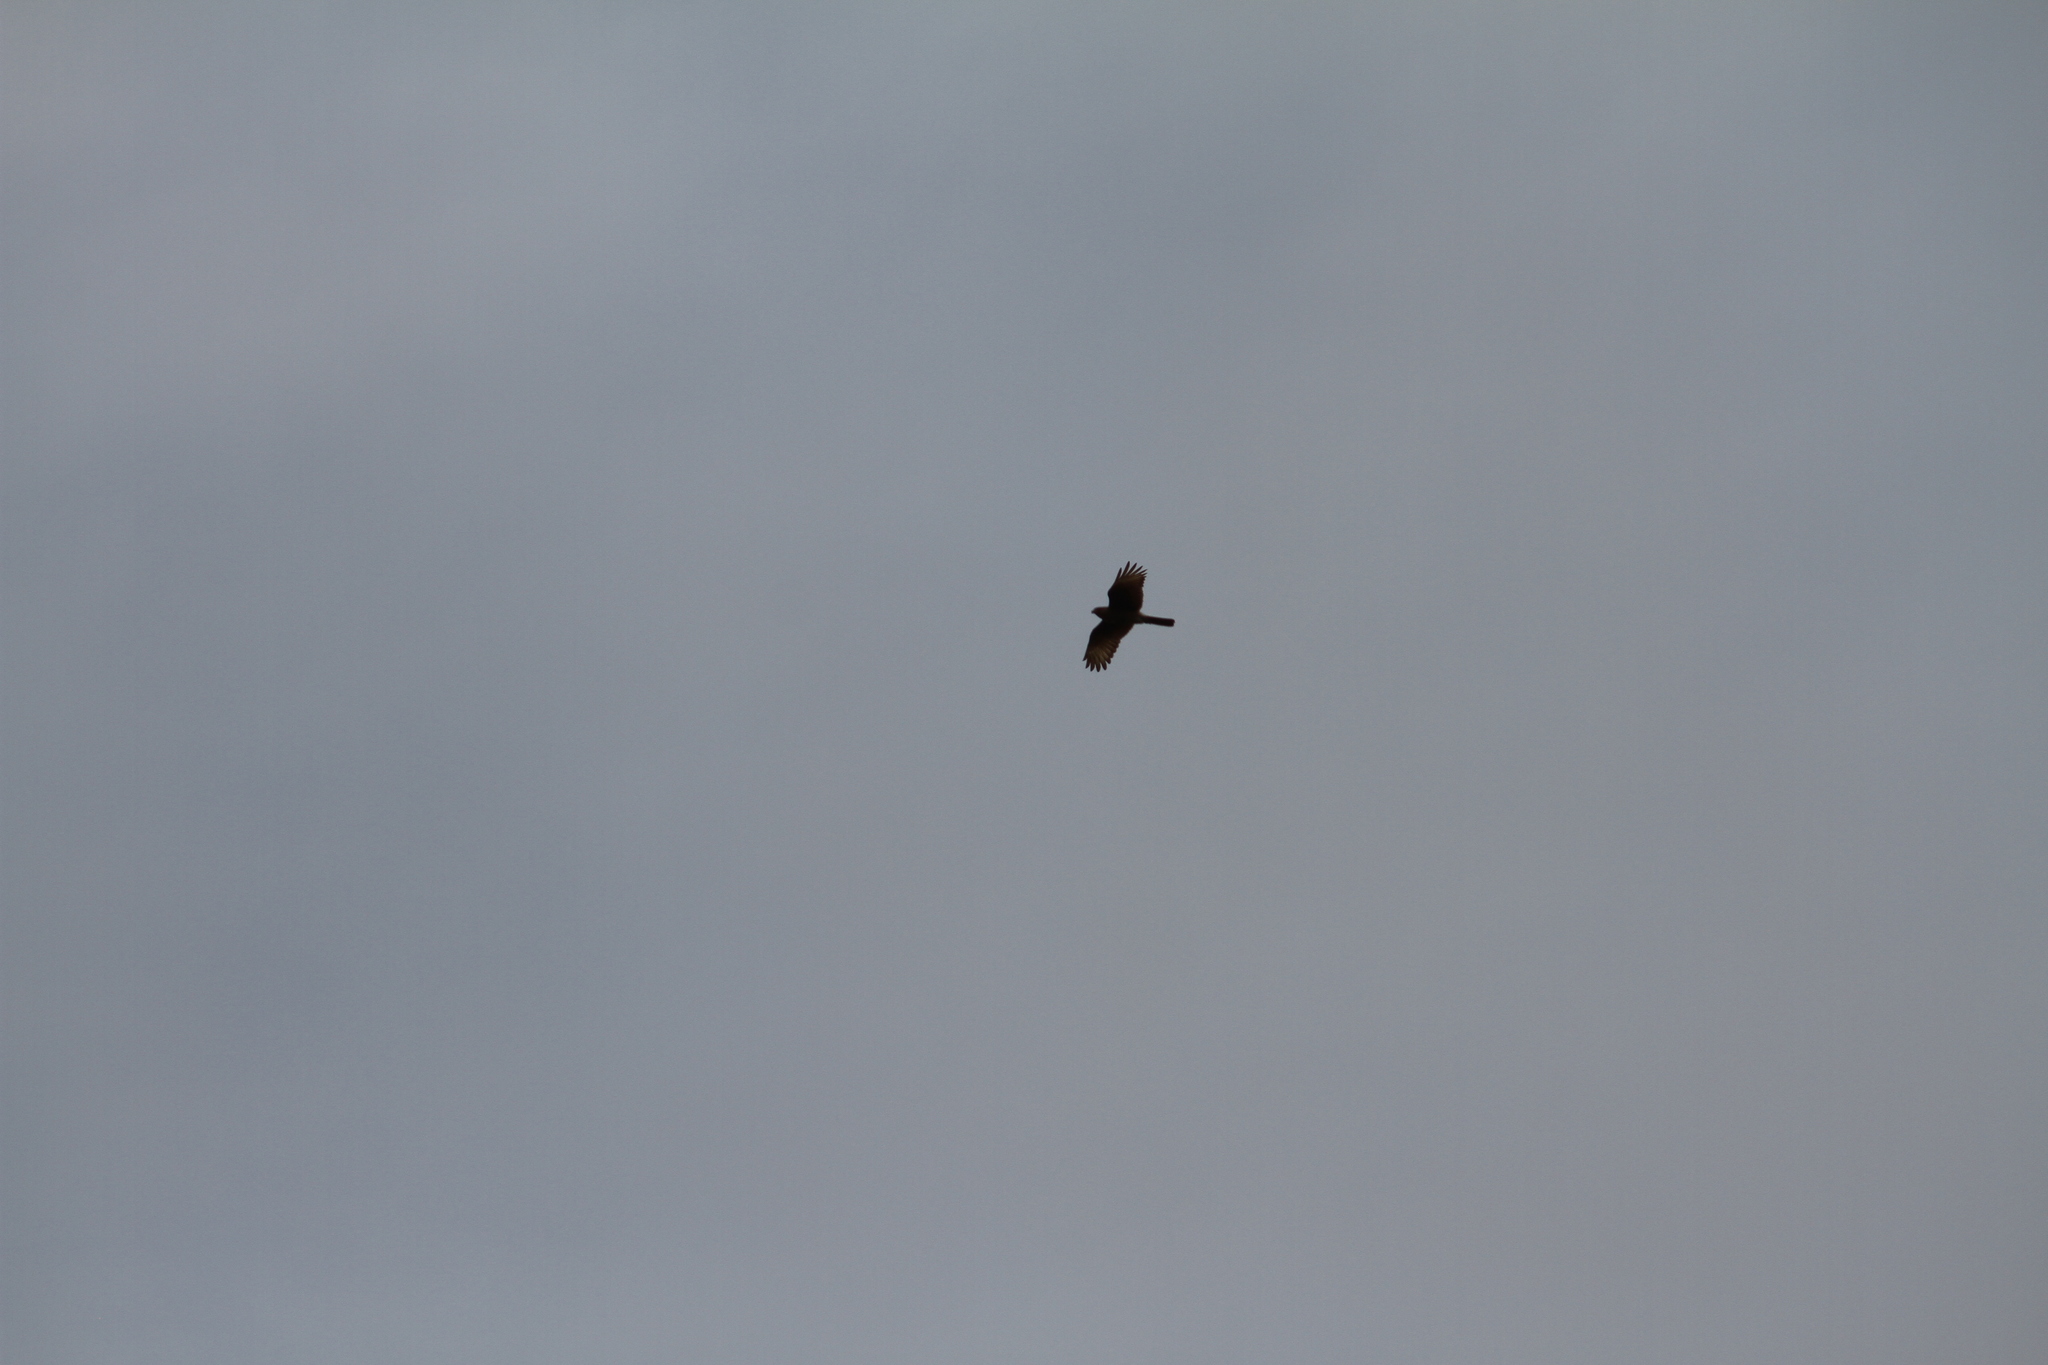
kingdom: Animalia
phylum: Chordata
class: Aves
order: Falconiformes
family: Falconidae
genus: Daptrius
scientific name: Daptrius
